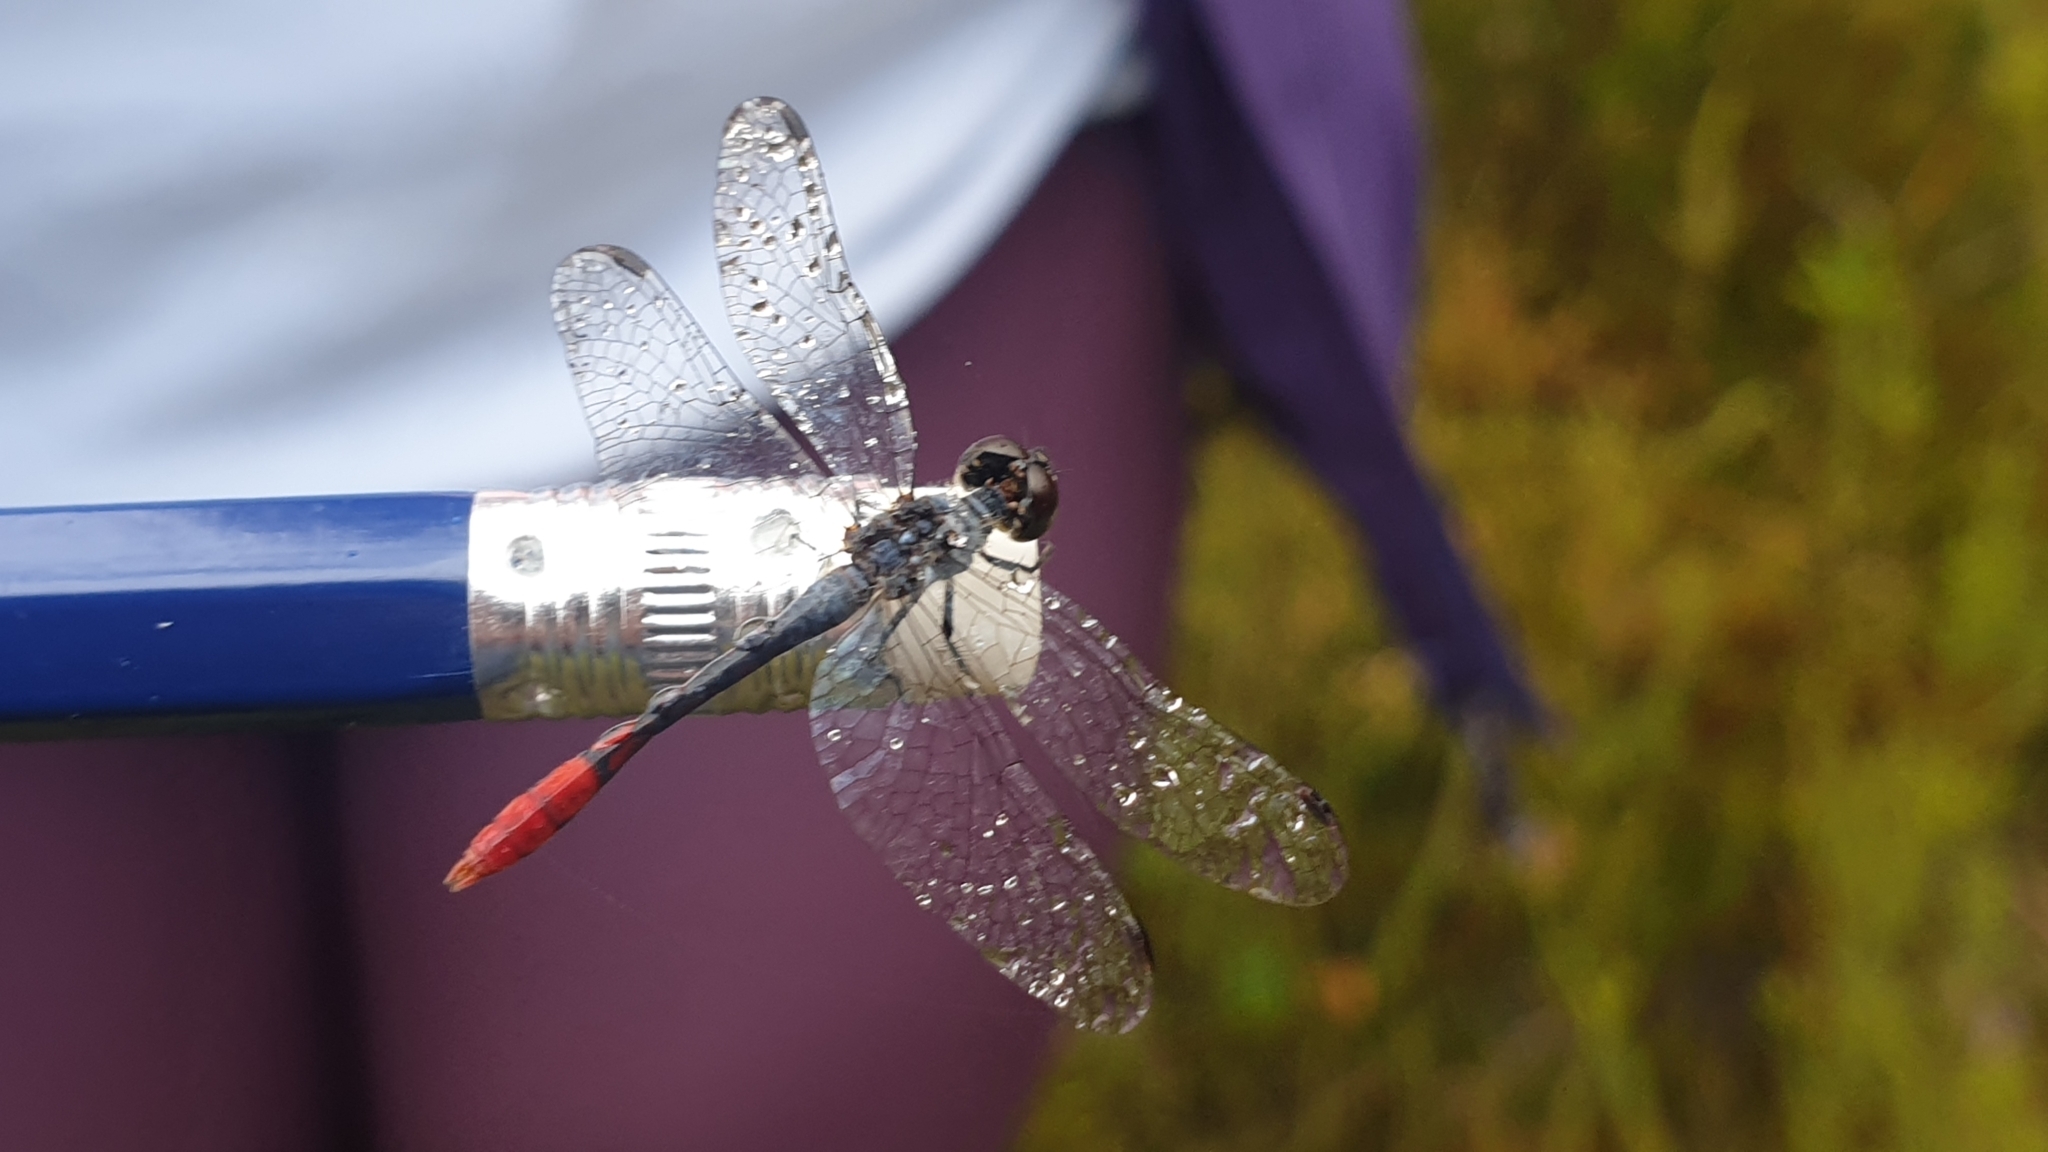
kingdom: Animalia
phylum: Arthropoda
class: Insecta
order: Odonata
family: Libellulidae
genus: Nannophya
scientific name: Nannophya australis
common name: Australian pygmyfly
